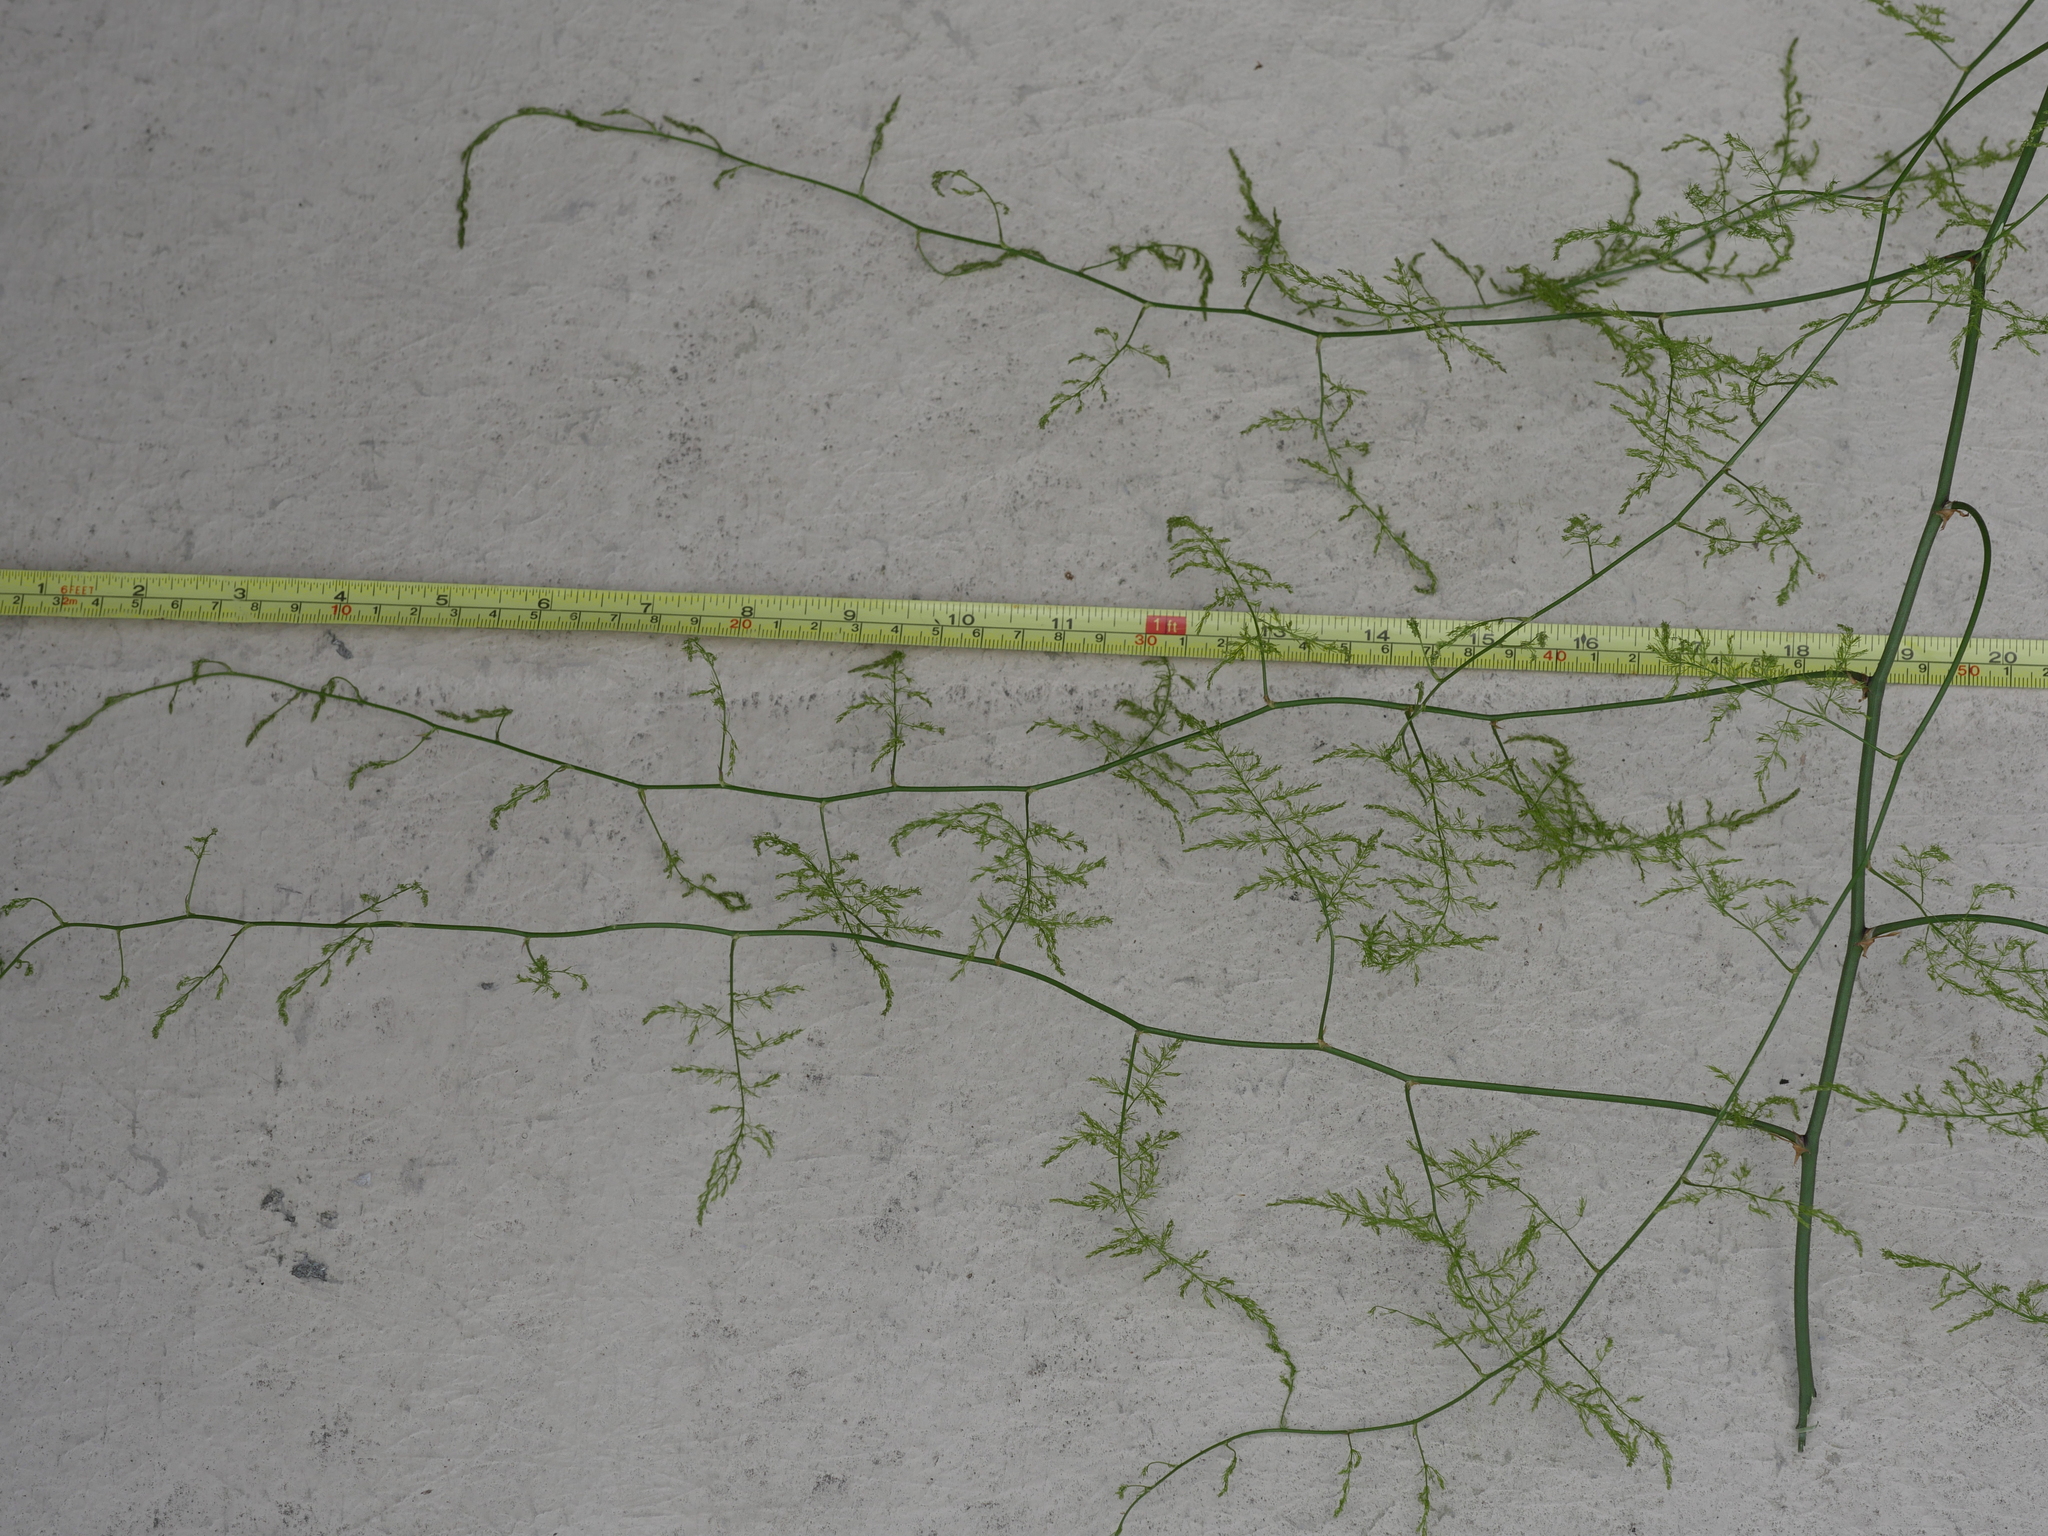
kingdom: Plantae
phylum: Tracheophyta
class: Liliopsida
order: Asparagales
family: Asparagaceae
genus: Asparagus
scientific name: Asparagus setaceus
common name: Common asparagus fern
